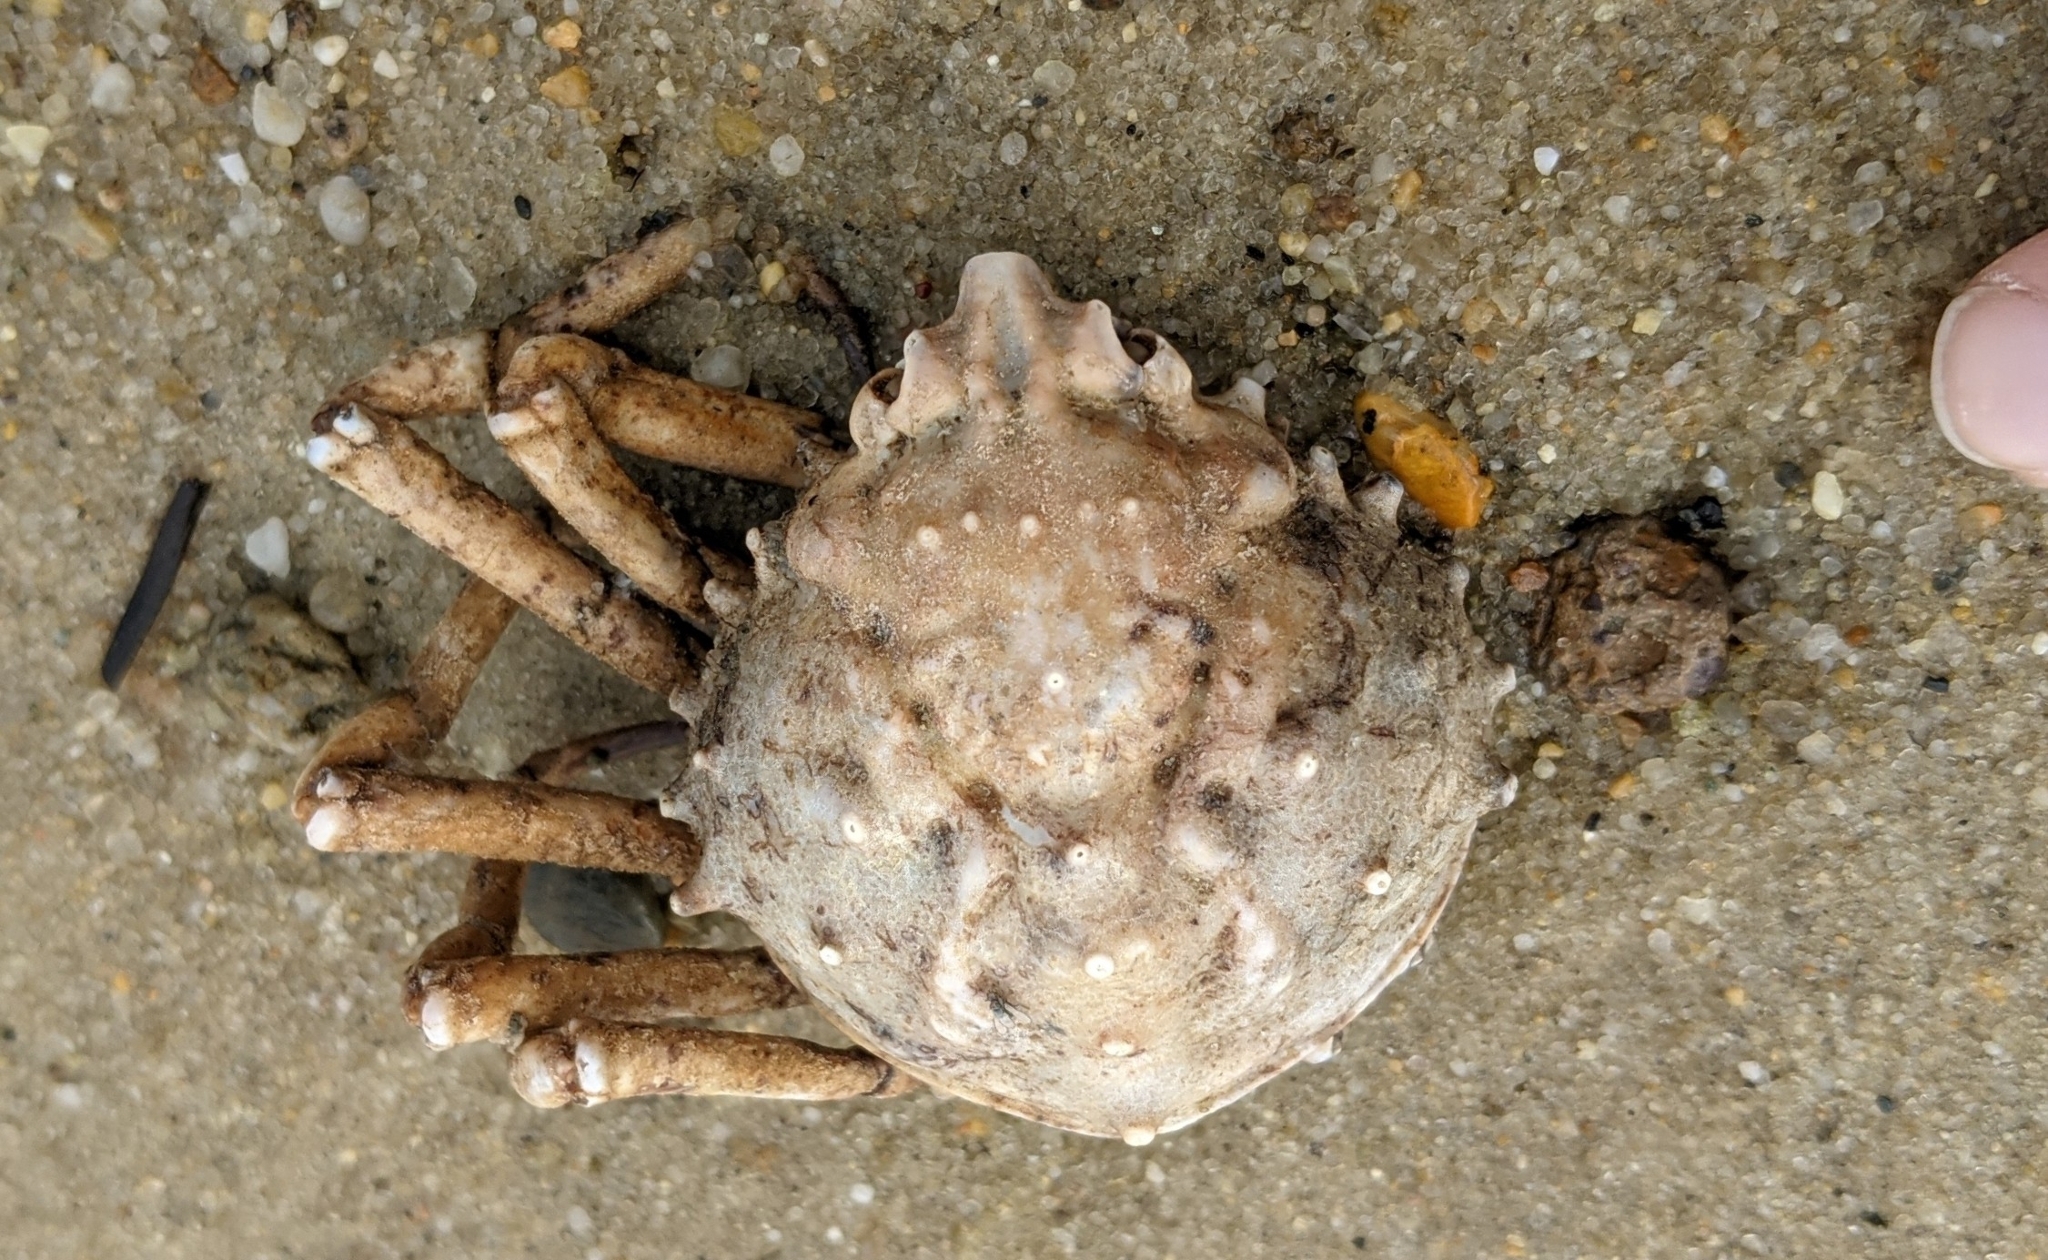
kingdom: Animalia
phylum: Arthropoda
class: Malacostraca
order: Decapoda
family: Epialtidae
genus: Libinia
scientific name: Libinia emarginata
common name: Common spider crab
